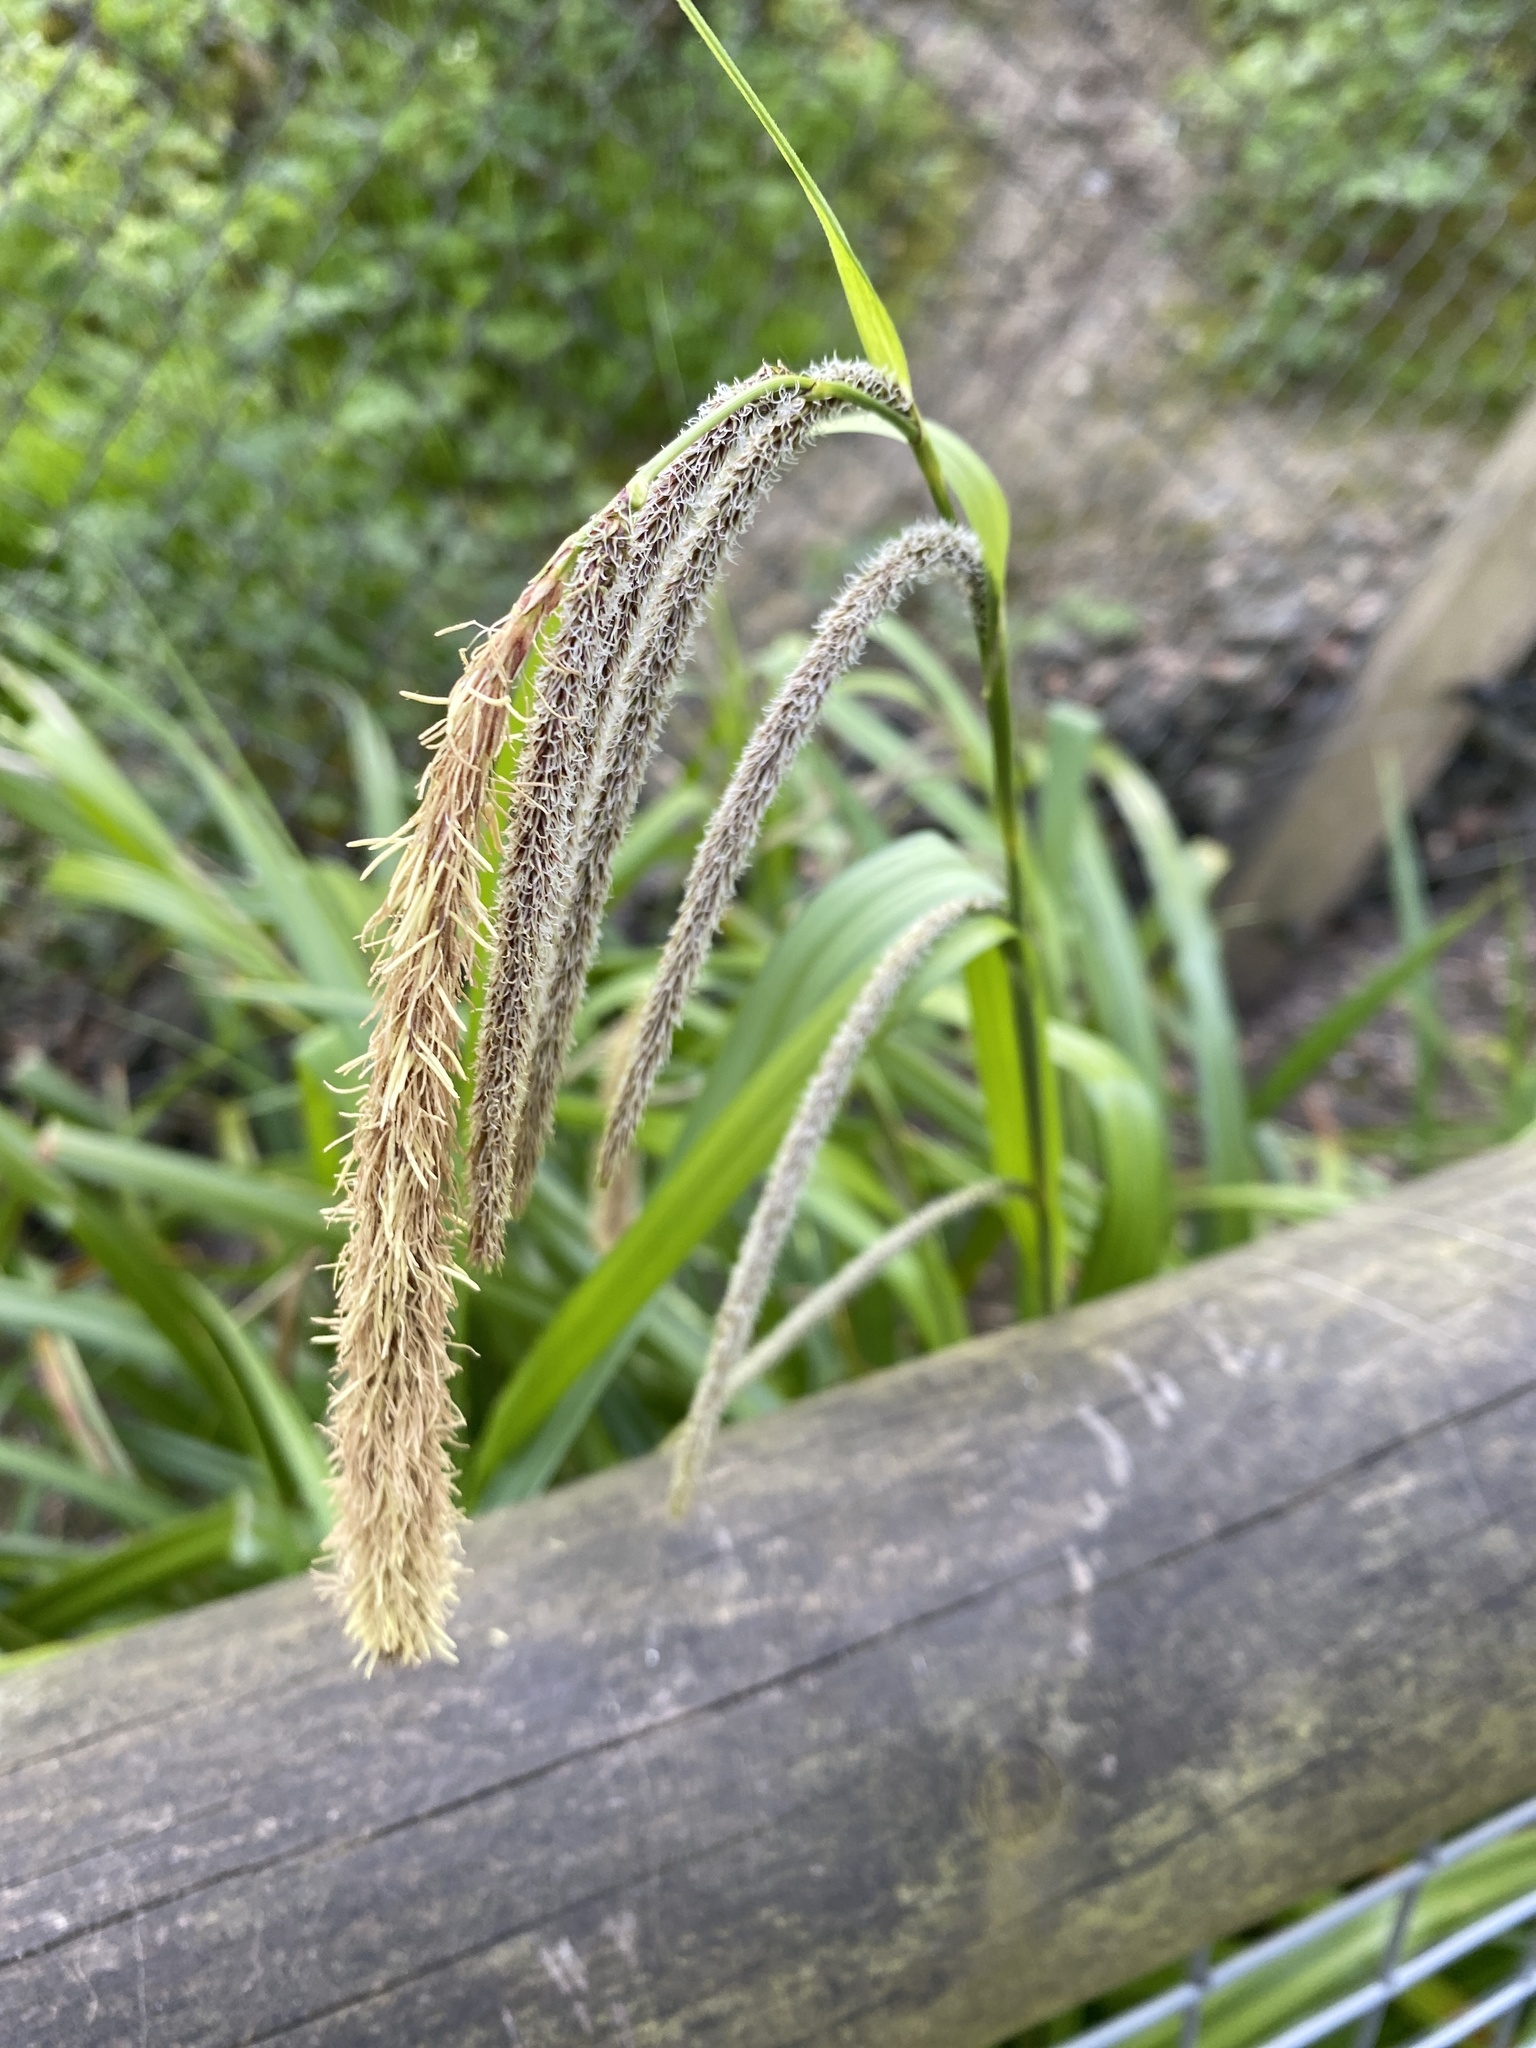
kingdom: Plantae
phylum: Tracheophyta
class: Liliopsida
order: Poales
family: Cyperaceae
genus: Carex
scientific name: Carex pendula
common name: Pendulous sedge
